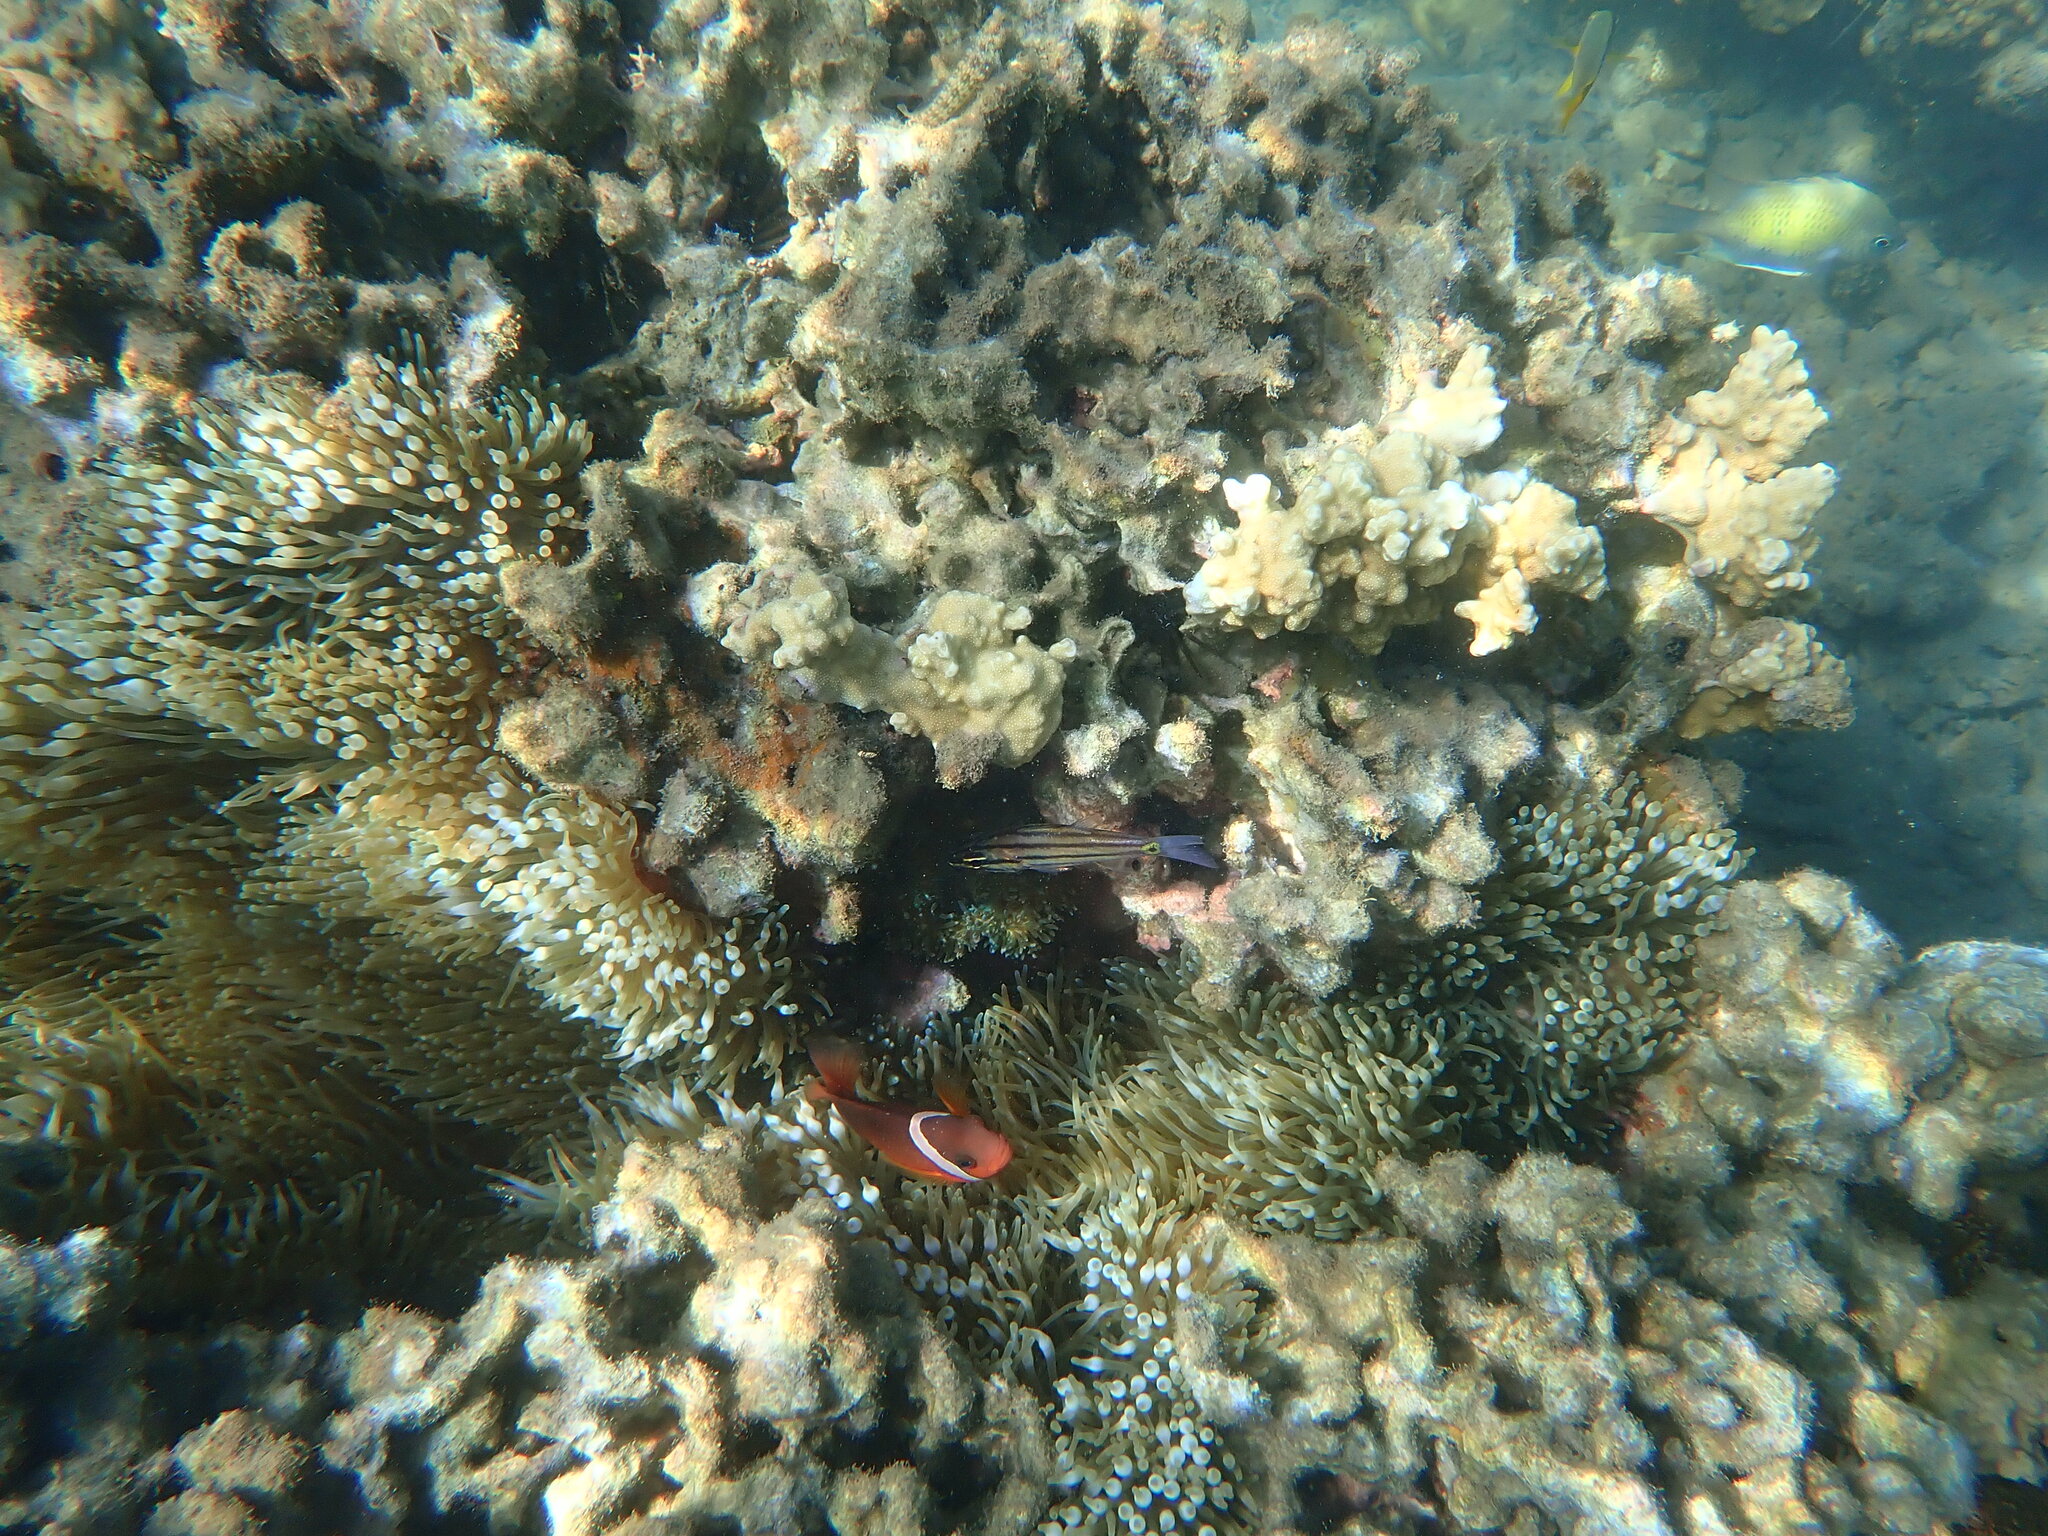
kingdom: Animalia
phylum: Chordata
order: Perciformes
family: Pomacentridae
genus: Amphiprion
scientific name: Amphiprion barberi
